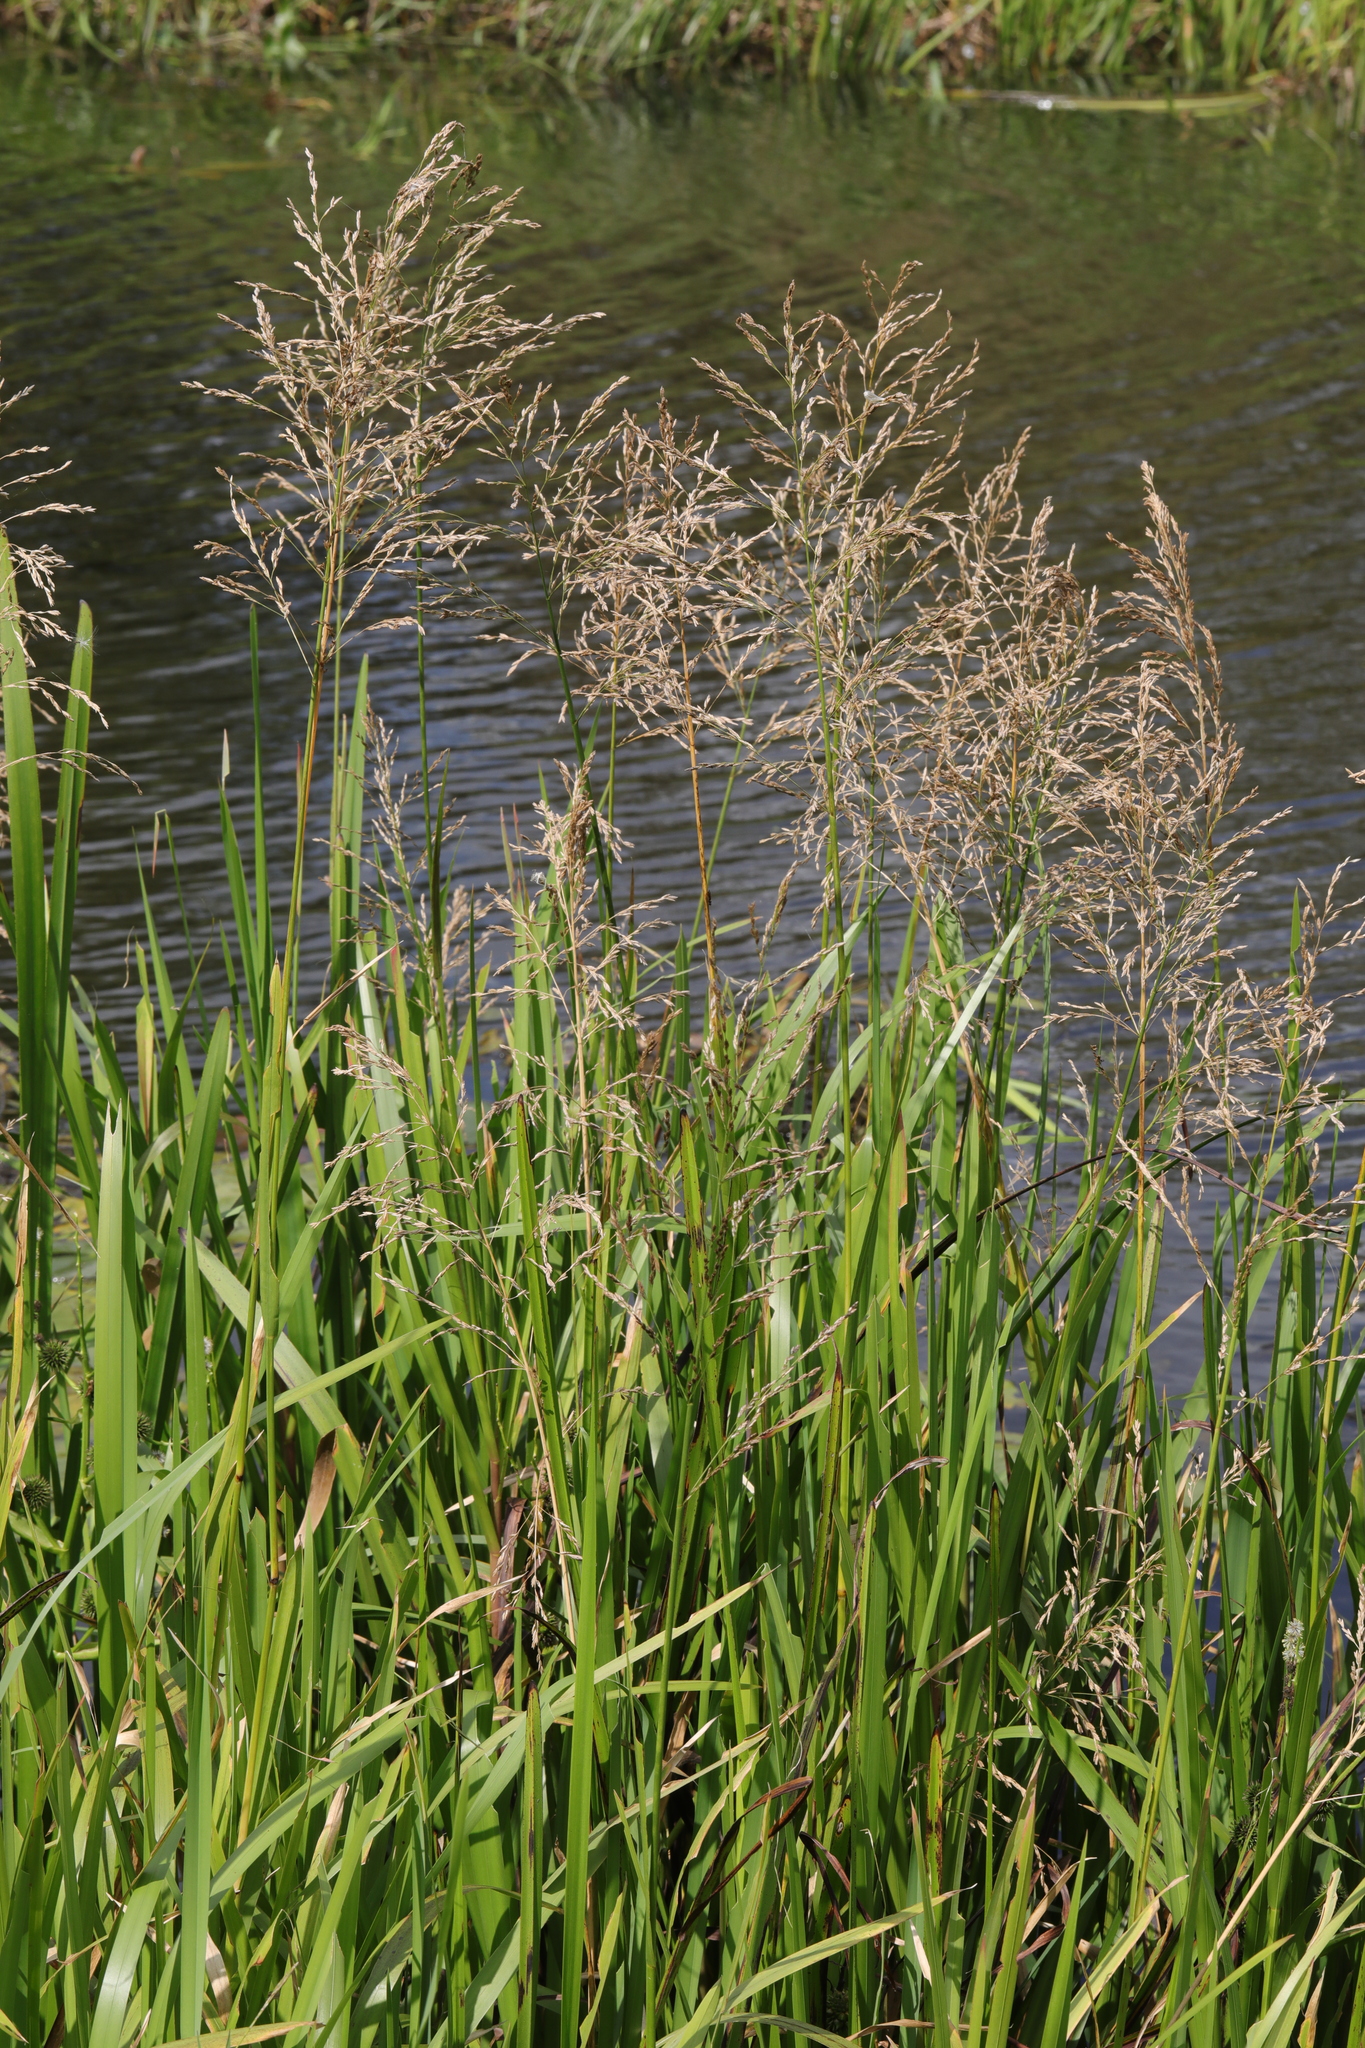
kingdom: Plantae
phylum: Tracheophyta
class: Liliopsida
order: Poales
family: Poaceae
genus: Glyceria
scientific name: Glyceria maxima
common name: Reed mannagrass
